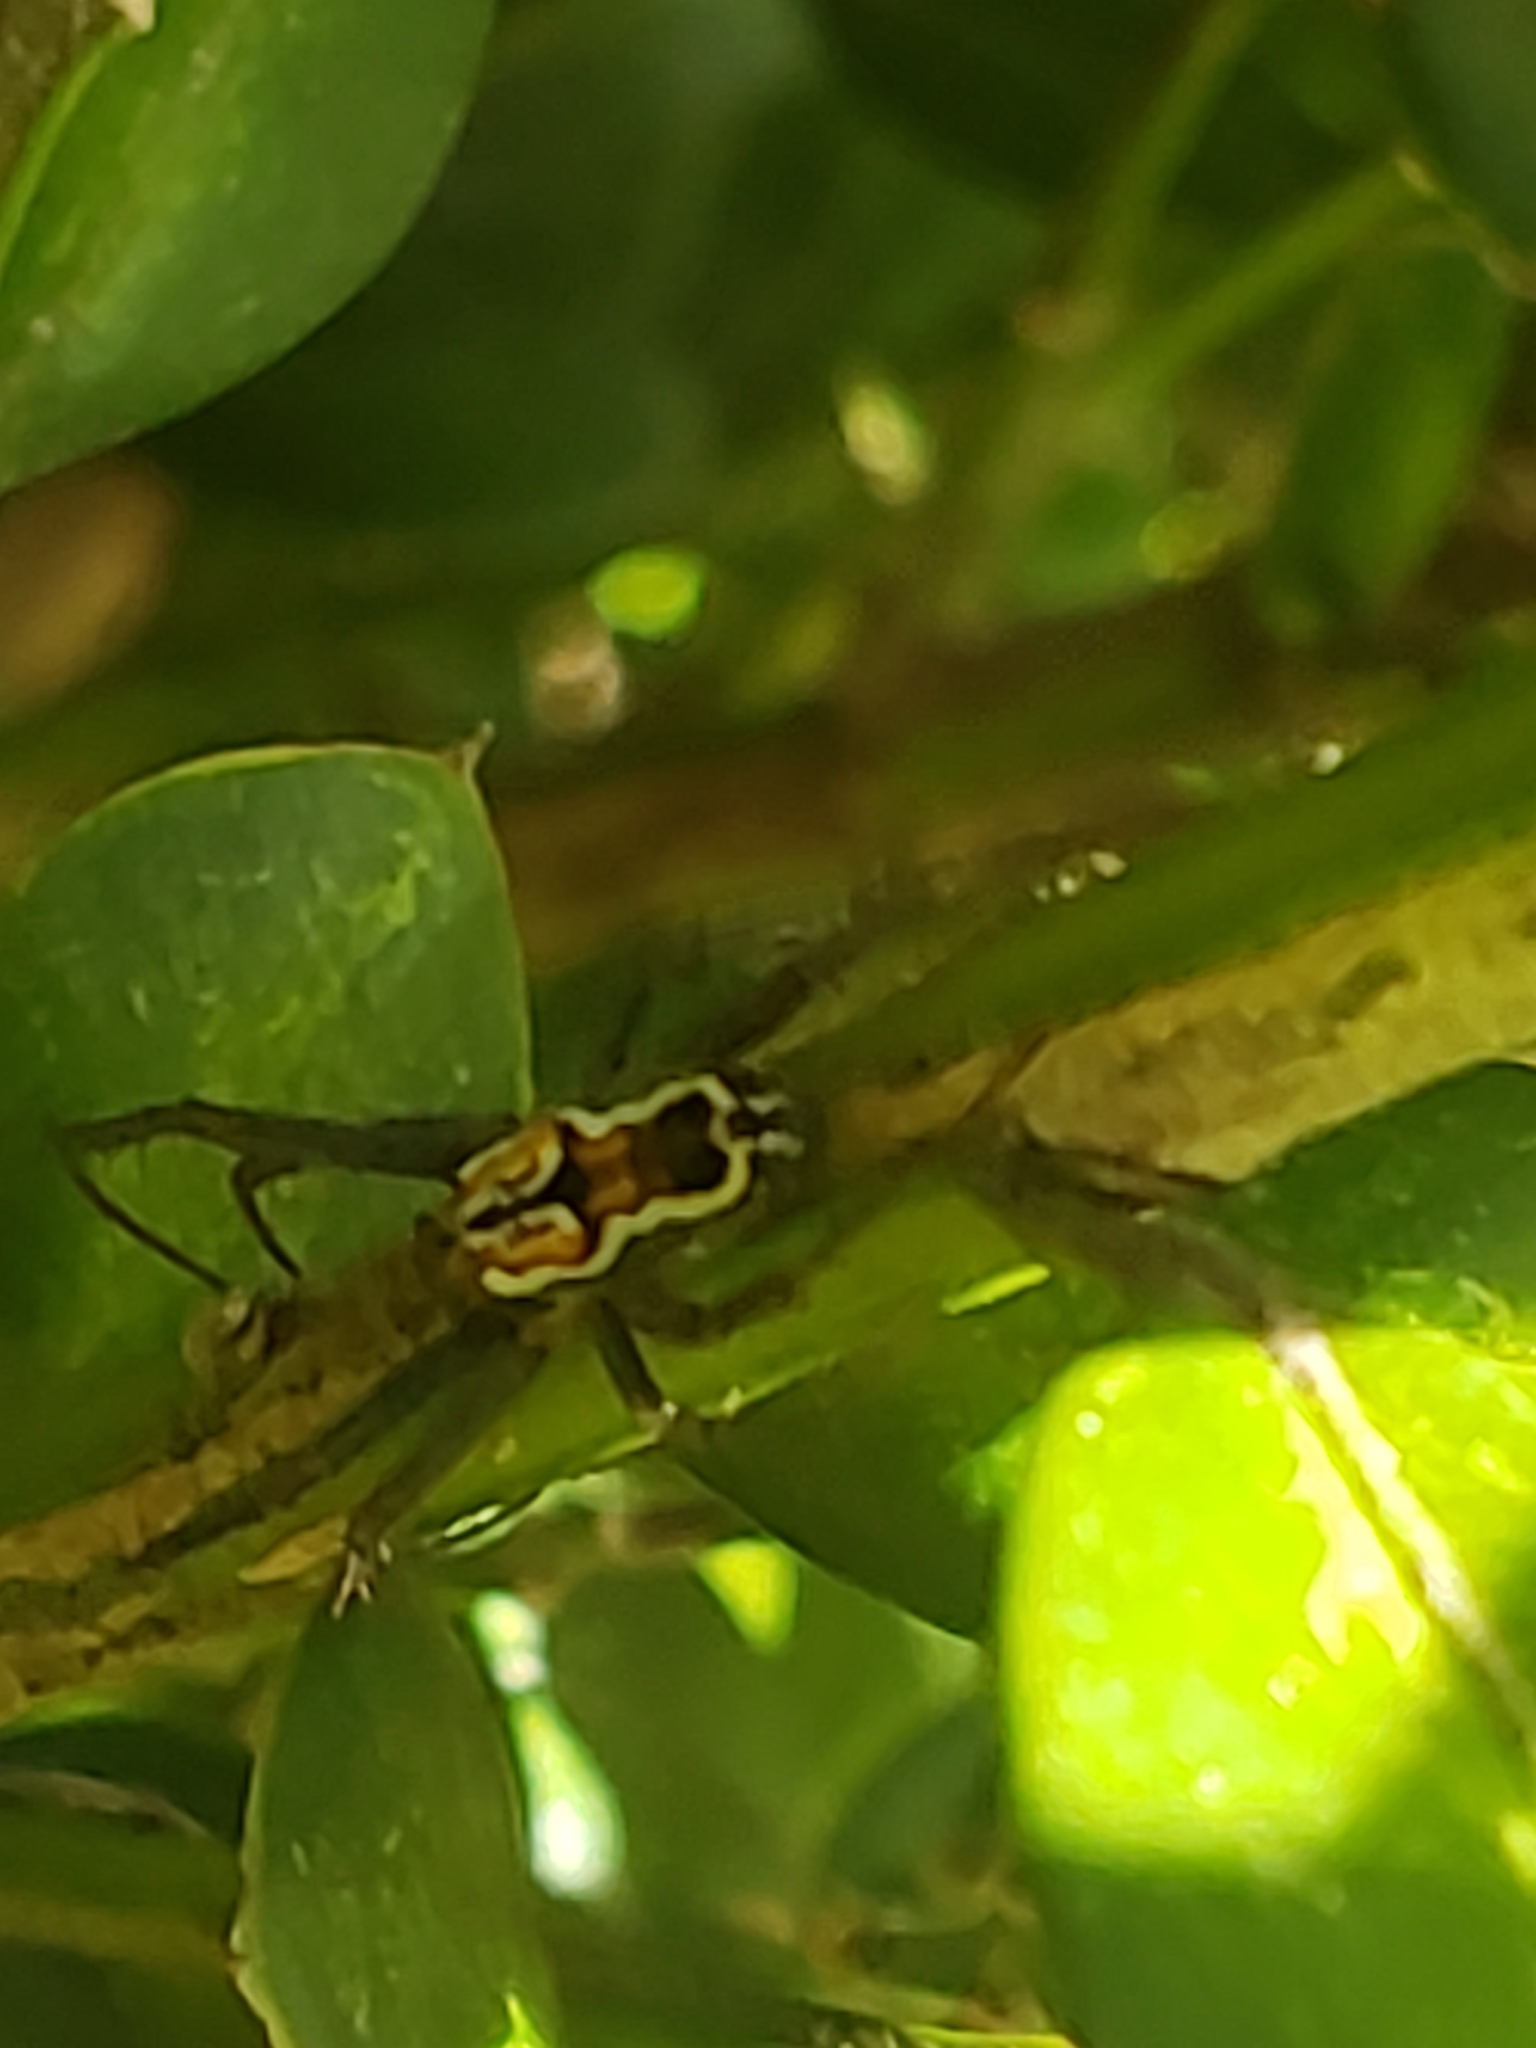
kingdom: Animalia
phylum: Arthropoda
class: Arachnida
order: Araneae
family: Araneidae
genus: Mecynogea
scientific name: Mecynogea lemniscata
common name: Orb weavers
